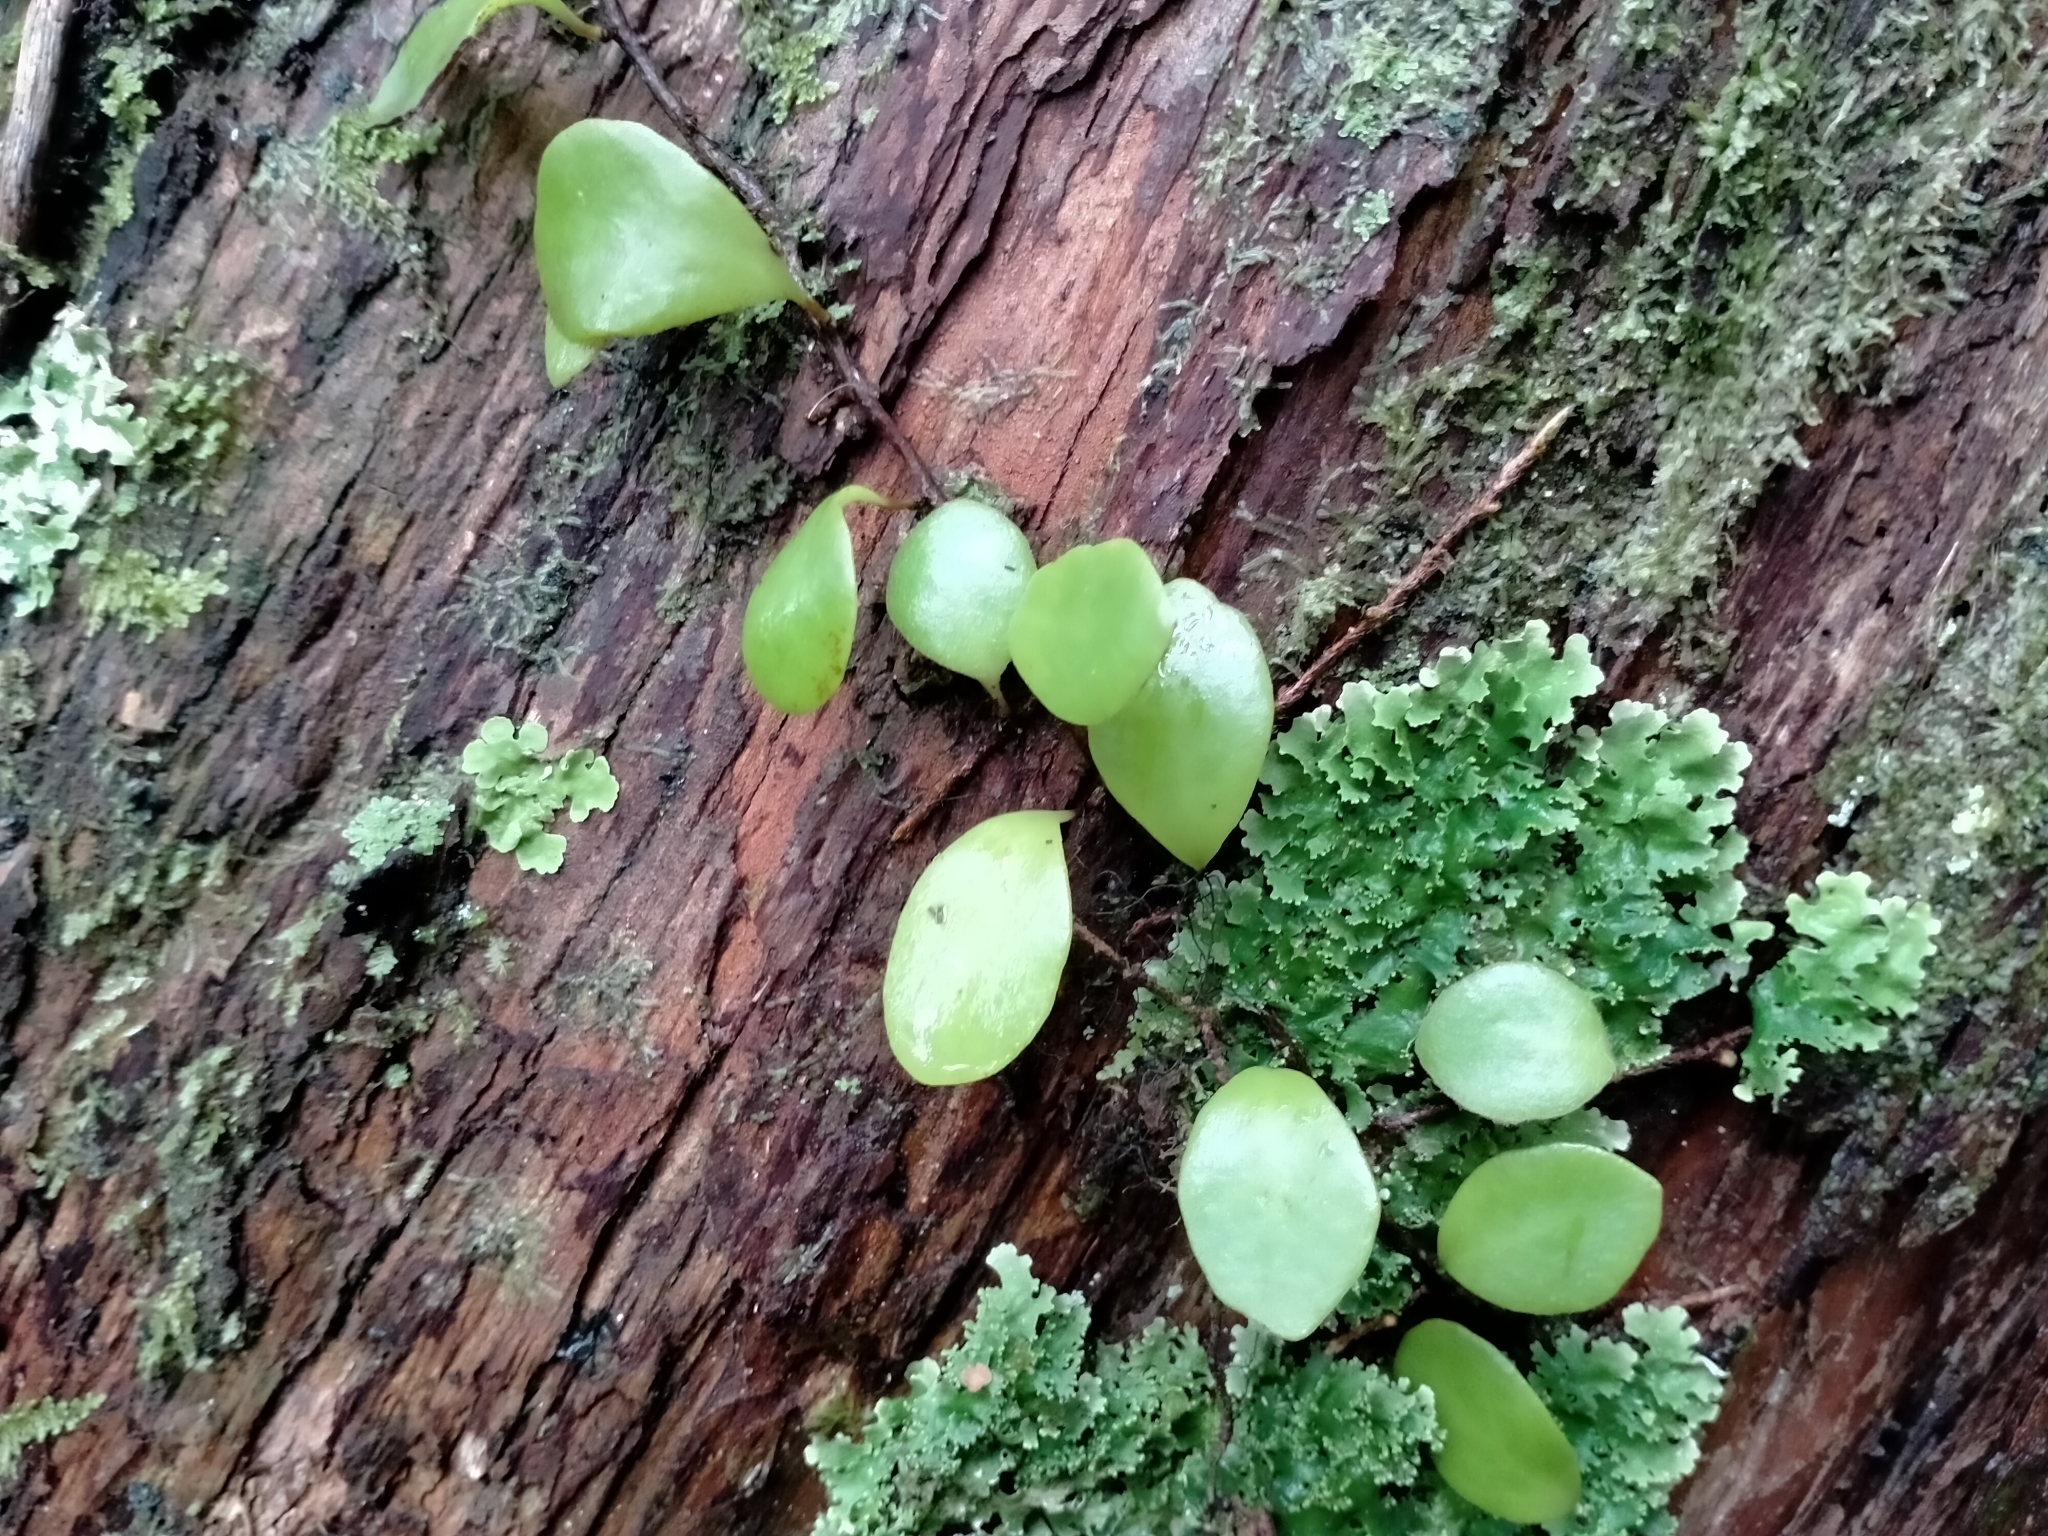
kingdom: Plantae
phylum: Tracheophyta
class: Polypodiopsida
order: Polypodiales
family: Polypodiaceae
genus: Pyrrosia
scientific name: Pyrrosia eleagnifolia
